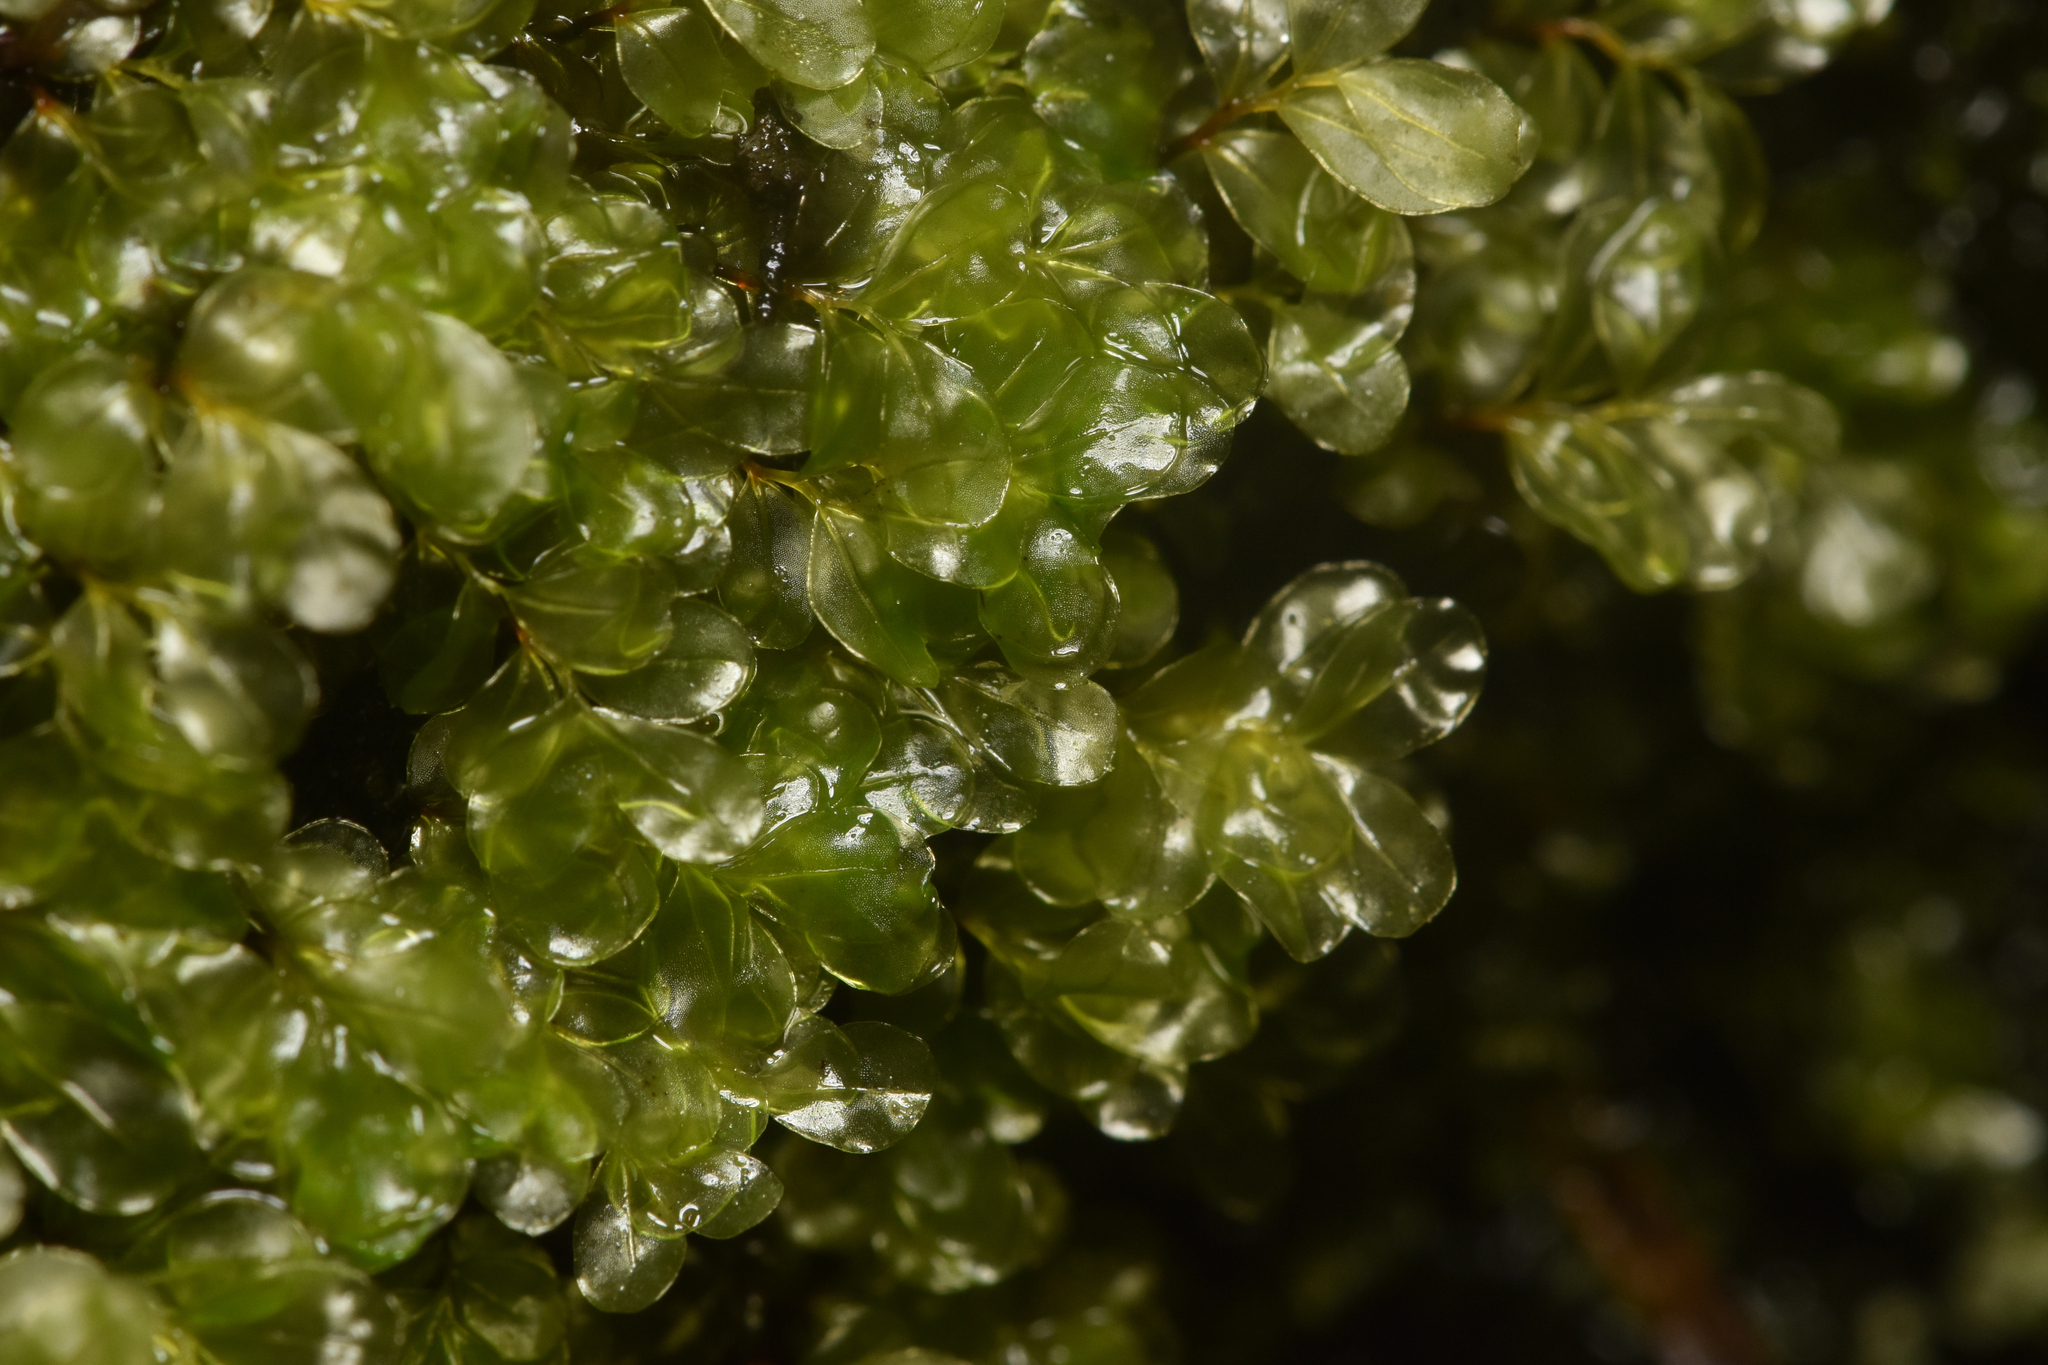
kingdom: Plantae
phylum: Bryophyta
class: Bryopsida
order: Bryales
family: Mniaceae
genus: Rhizomnium
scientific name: Rhizomnium glabrescens
